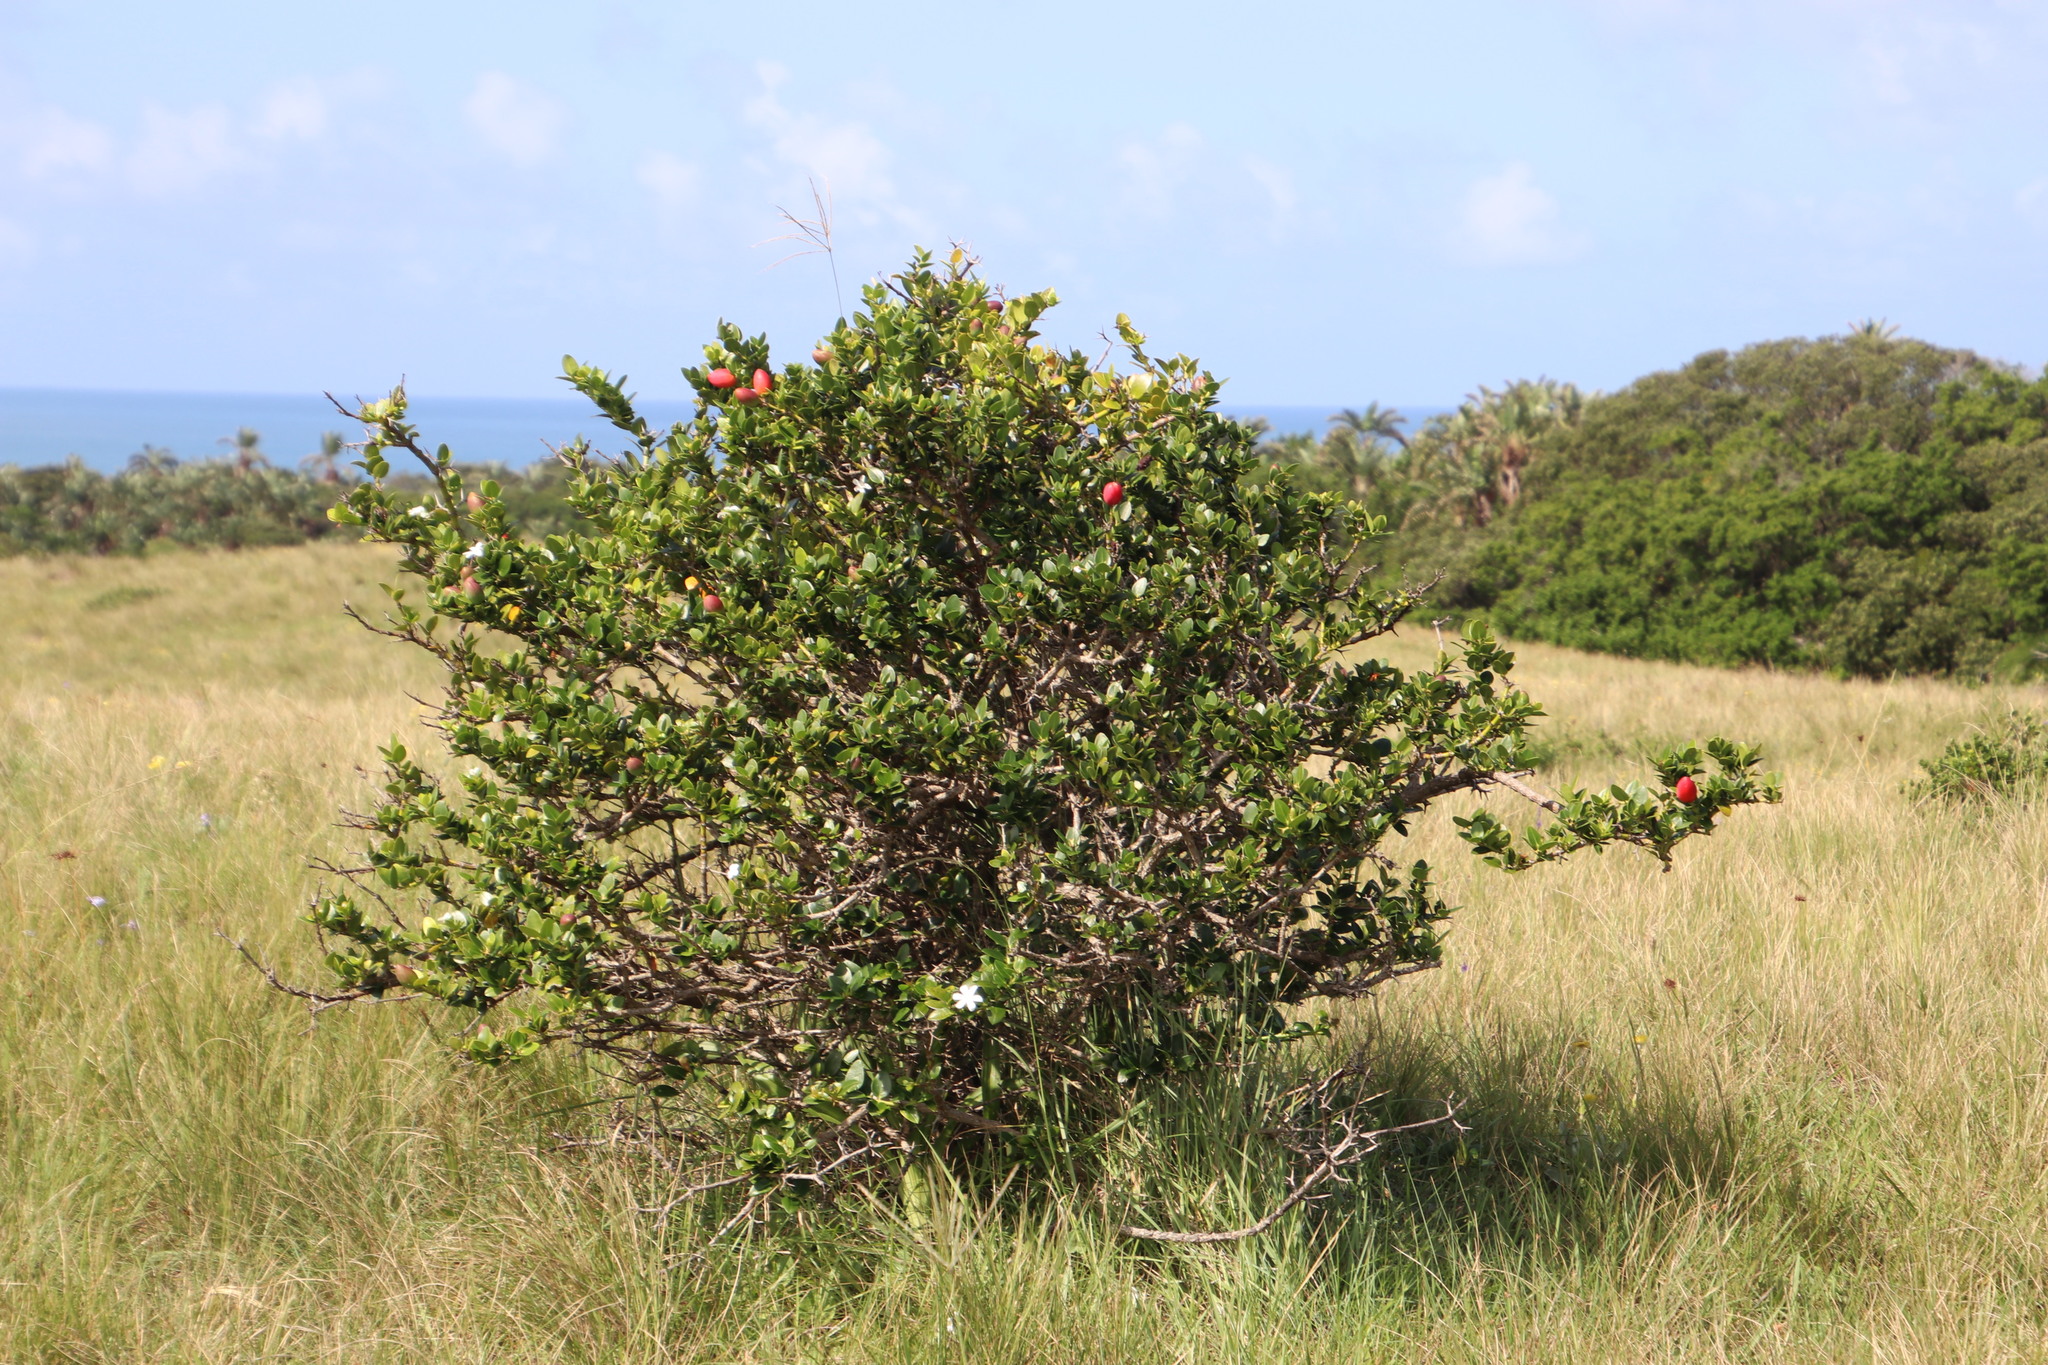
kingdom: Plantae
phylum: Tracheophyta
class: Magnoliopsida
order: Gentianales
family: Apocynaceae
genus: Carissa
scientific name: Carissa macrocarpa
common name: Natal plum
